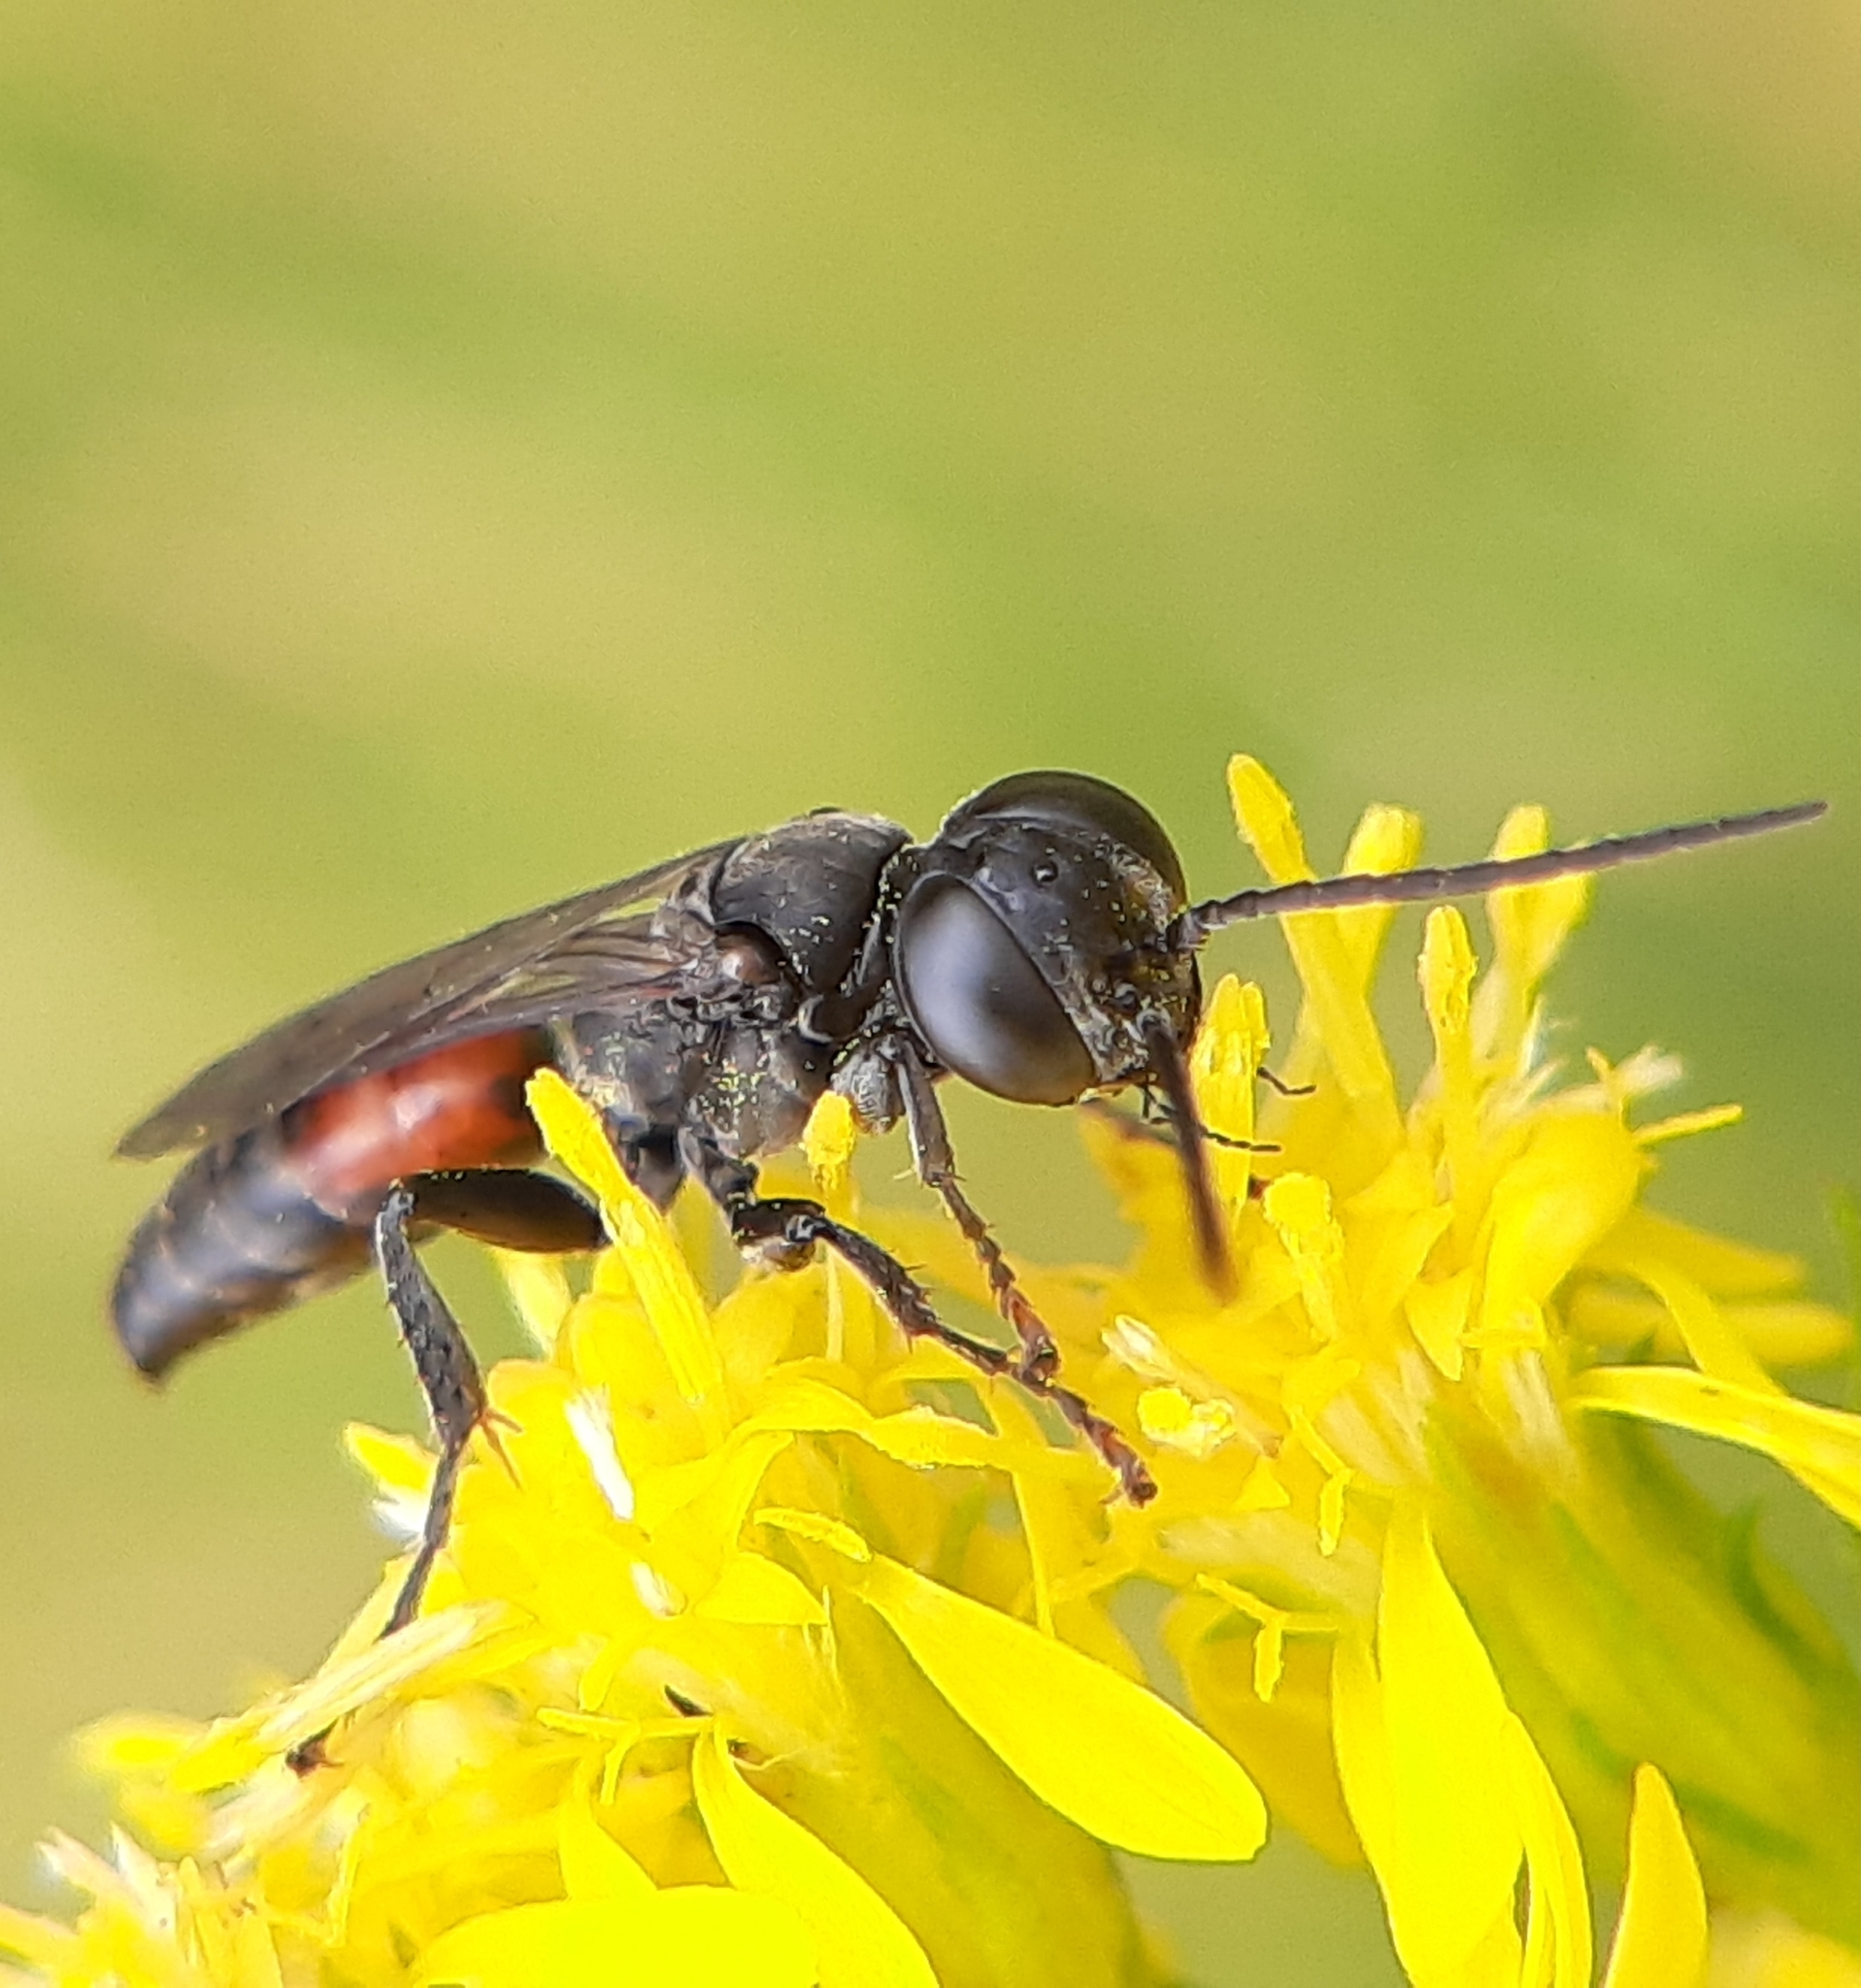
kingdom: Animalia
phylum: Arthropoda
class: Insecta
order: Hymenoptera
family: Crabronidae
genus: Larropsis
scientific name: Larropsis distincta
